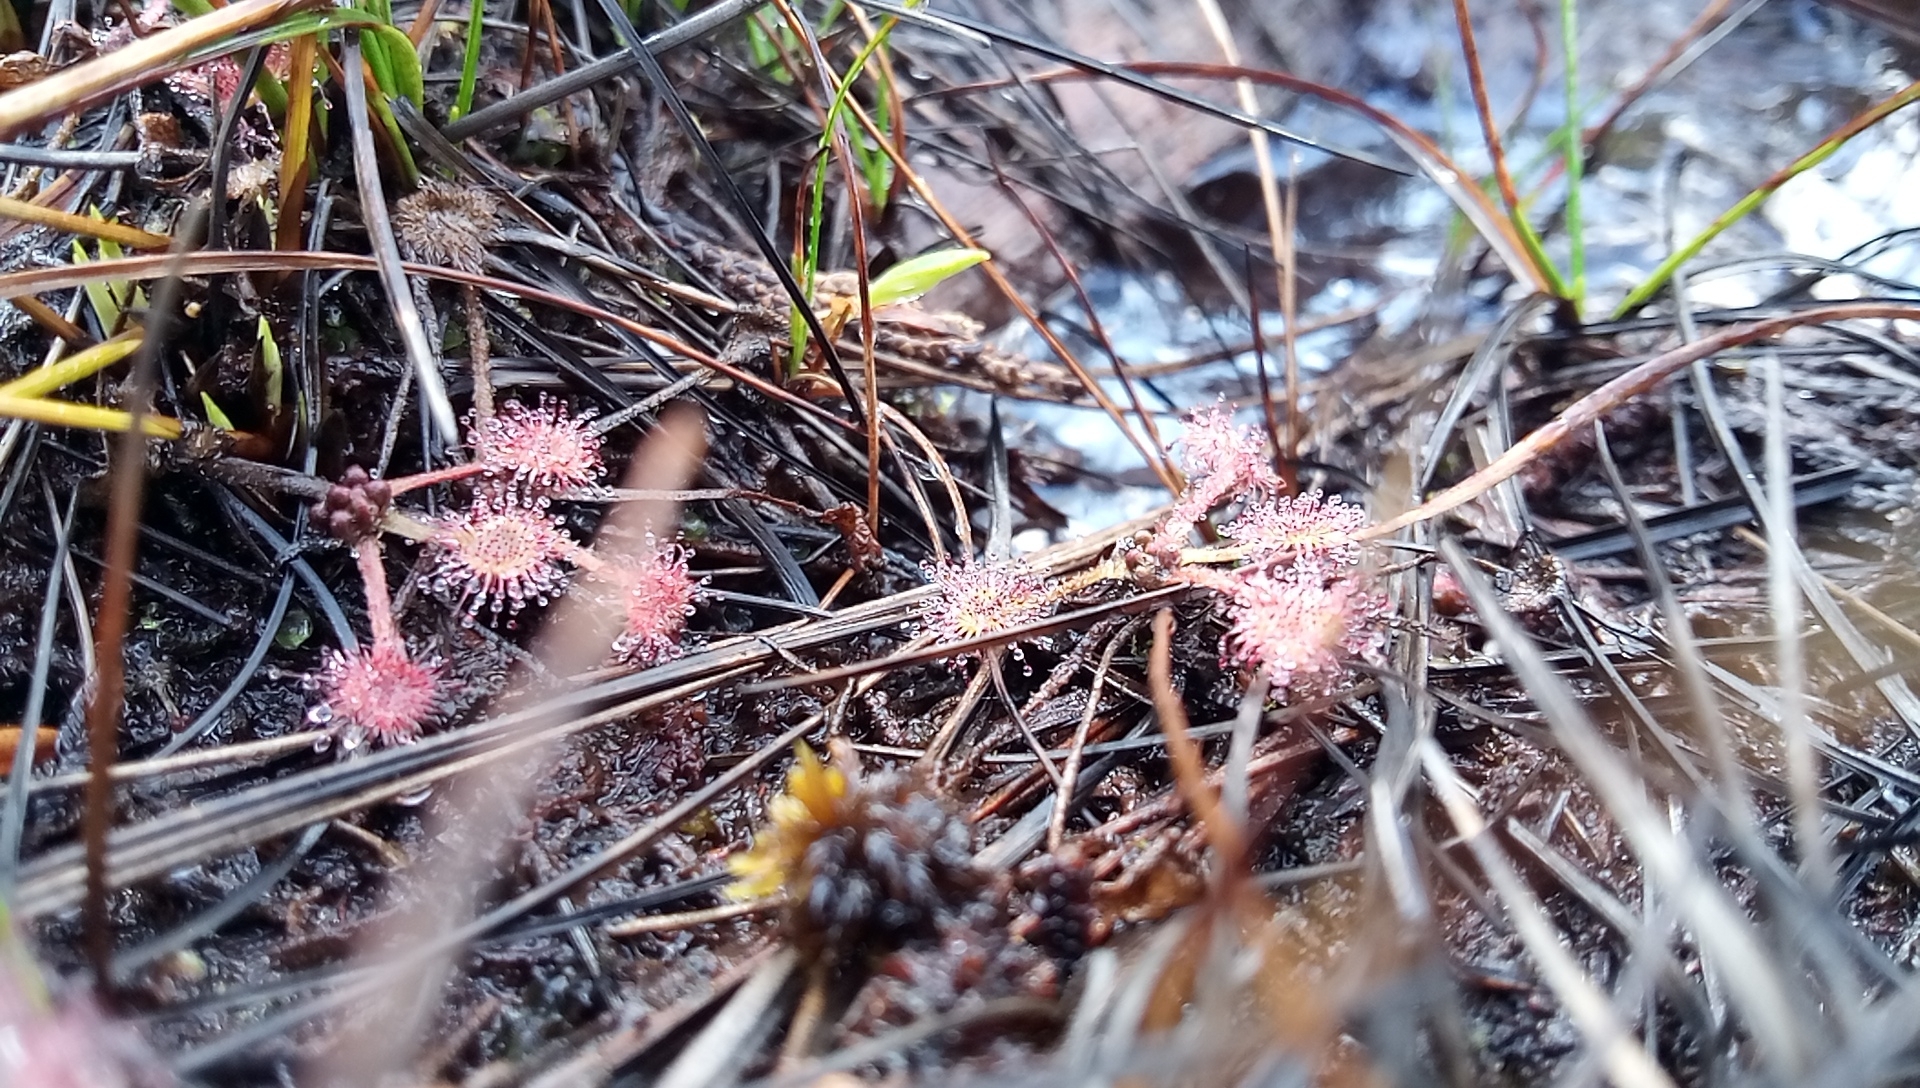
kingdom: Plantae
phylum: Tracheophyta
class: Magnoliopsida
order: Caryophyllales
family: Droseraceae
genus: Drosera
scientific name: Drosera rotundifolia
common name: Round-leaved sundew
